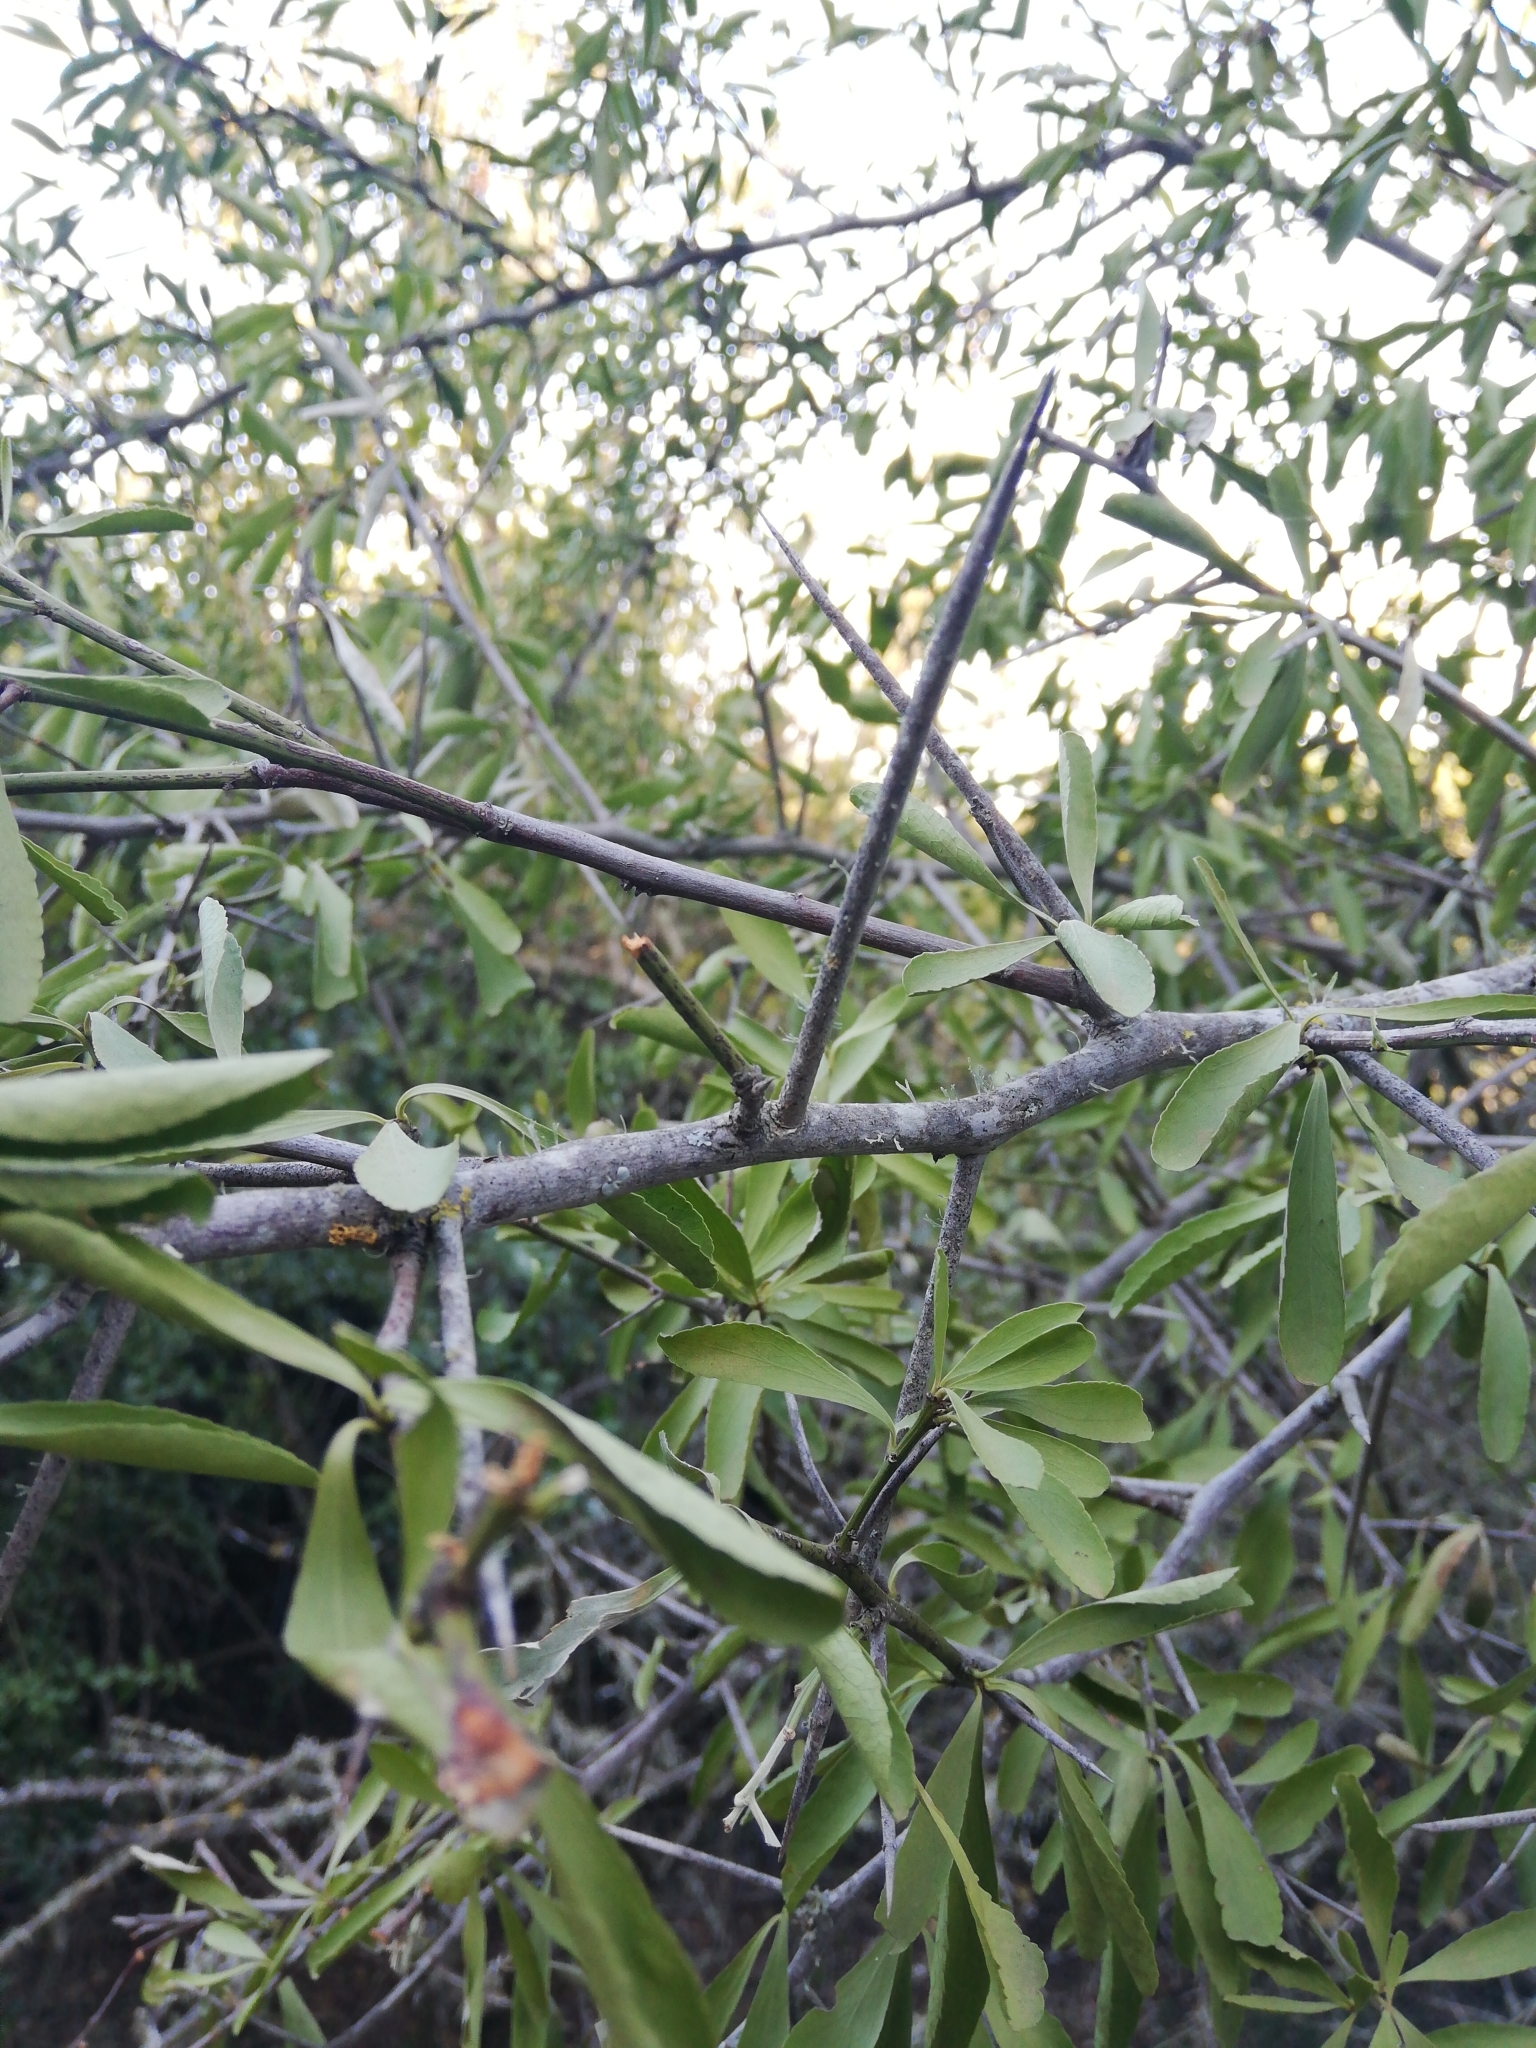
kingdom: Plantae
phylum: Tracheophyta
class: Magnoliopsida
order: Celastrales
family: Celastraceae
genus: Gymnosporia
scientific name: Gymnosporia buxifolia
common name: Common spike-thorn
